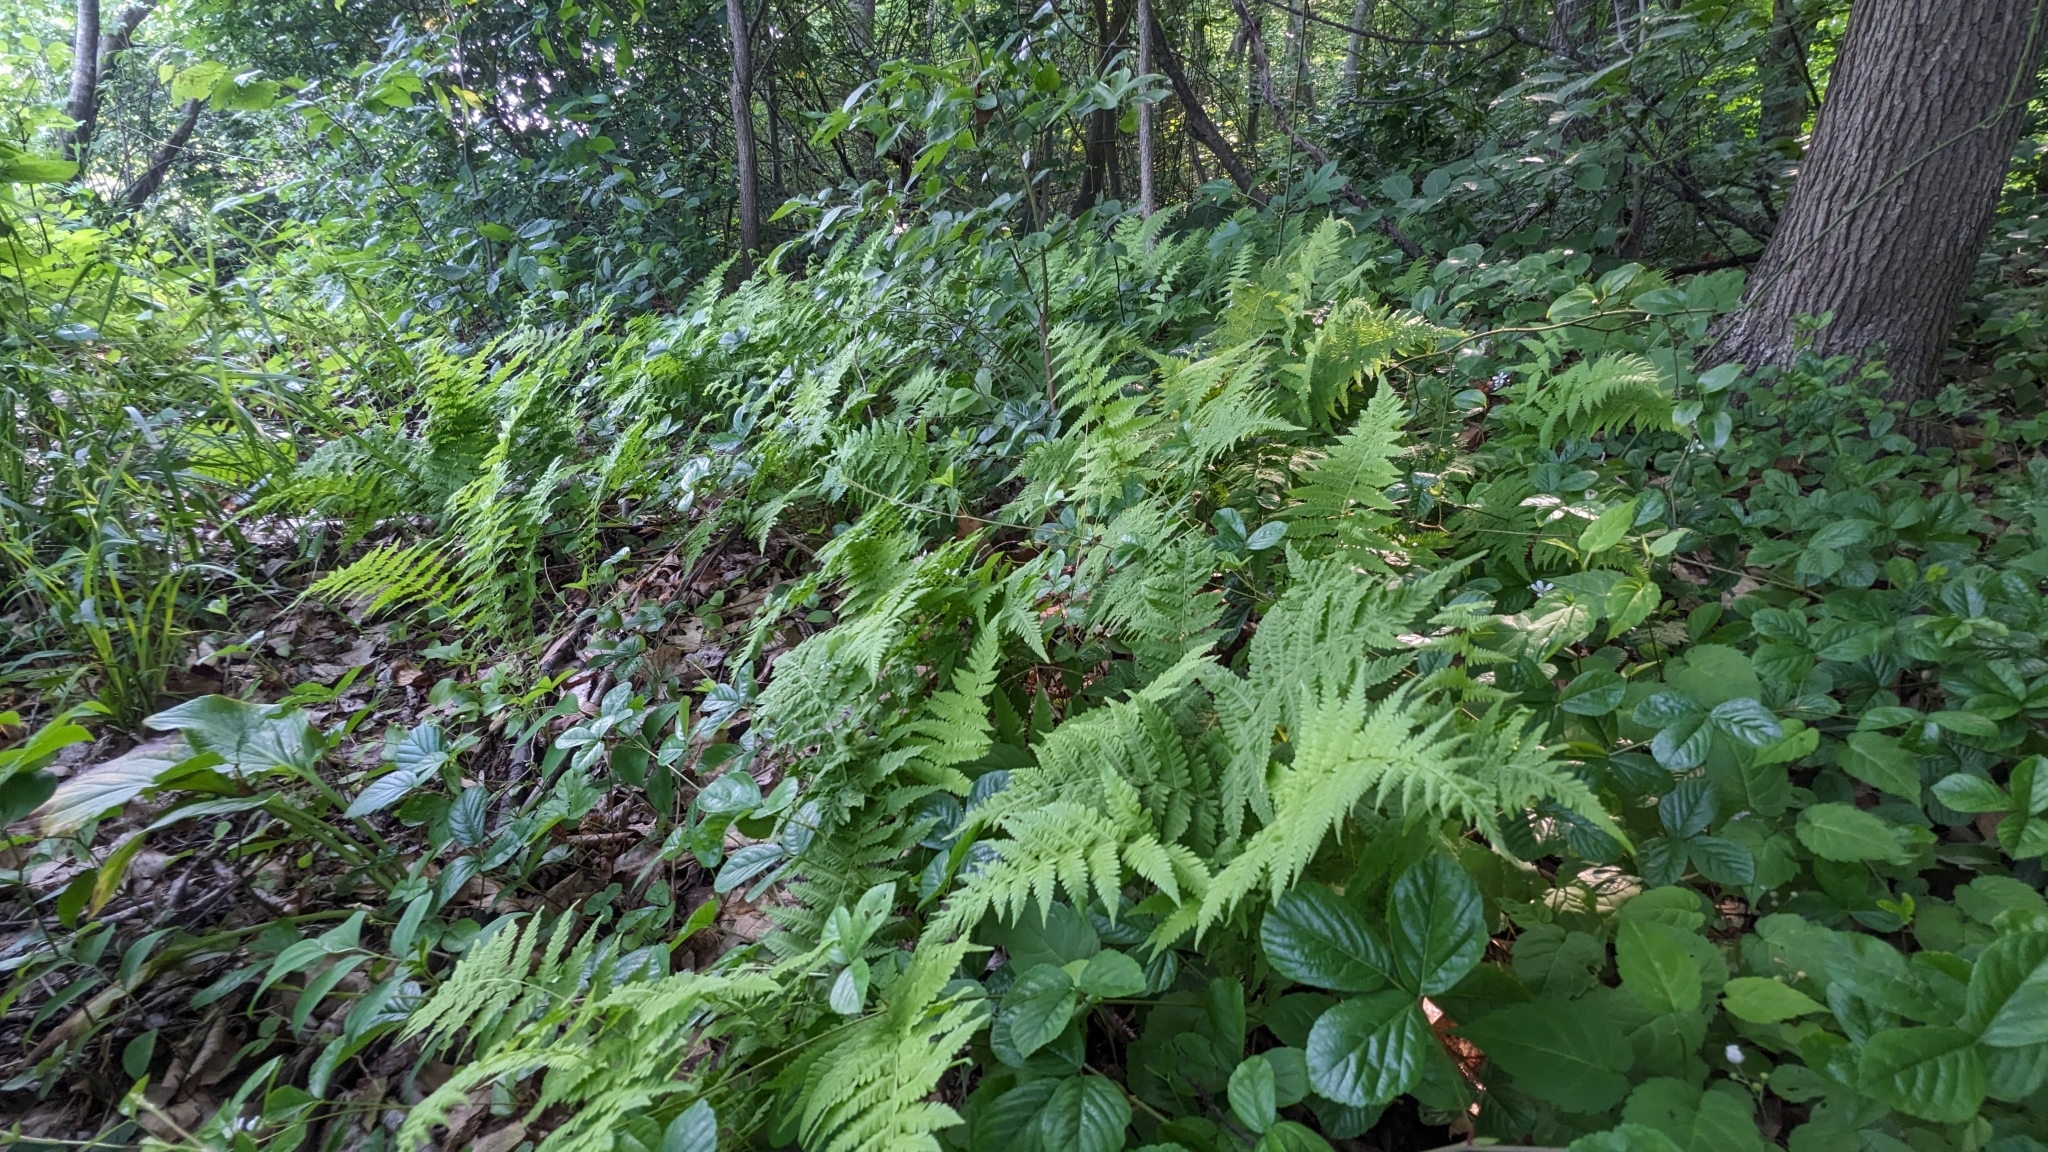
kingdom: Plantae
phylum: Tracheophyta
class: Polypodiopsida
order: Polypodiales
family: Thelypteridaceae
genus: Amauropelta
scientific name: Amauropelta noveboracensis
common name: New york fern
